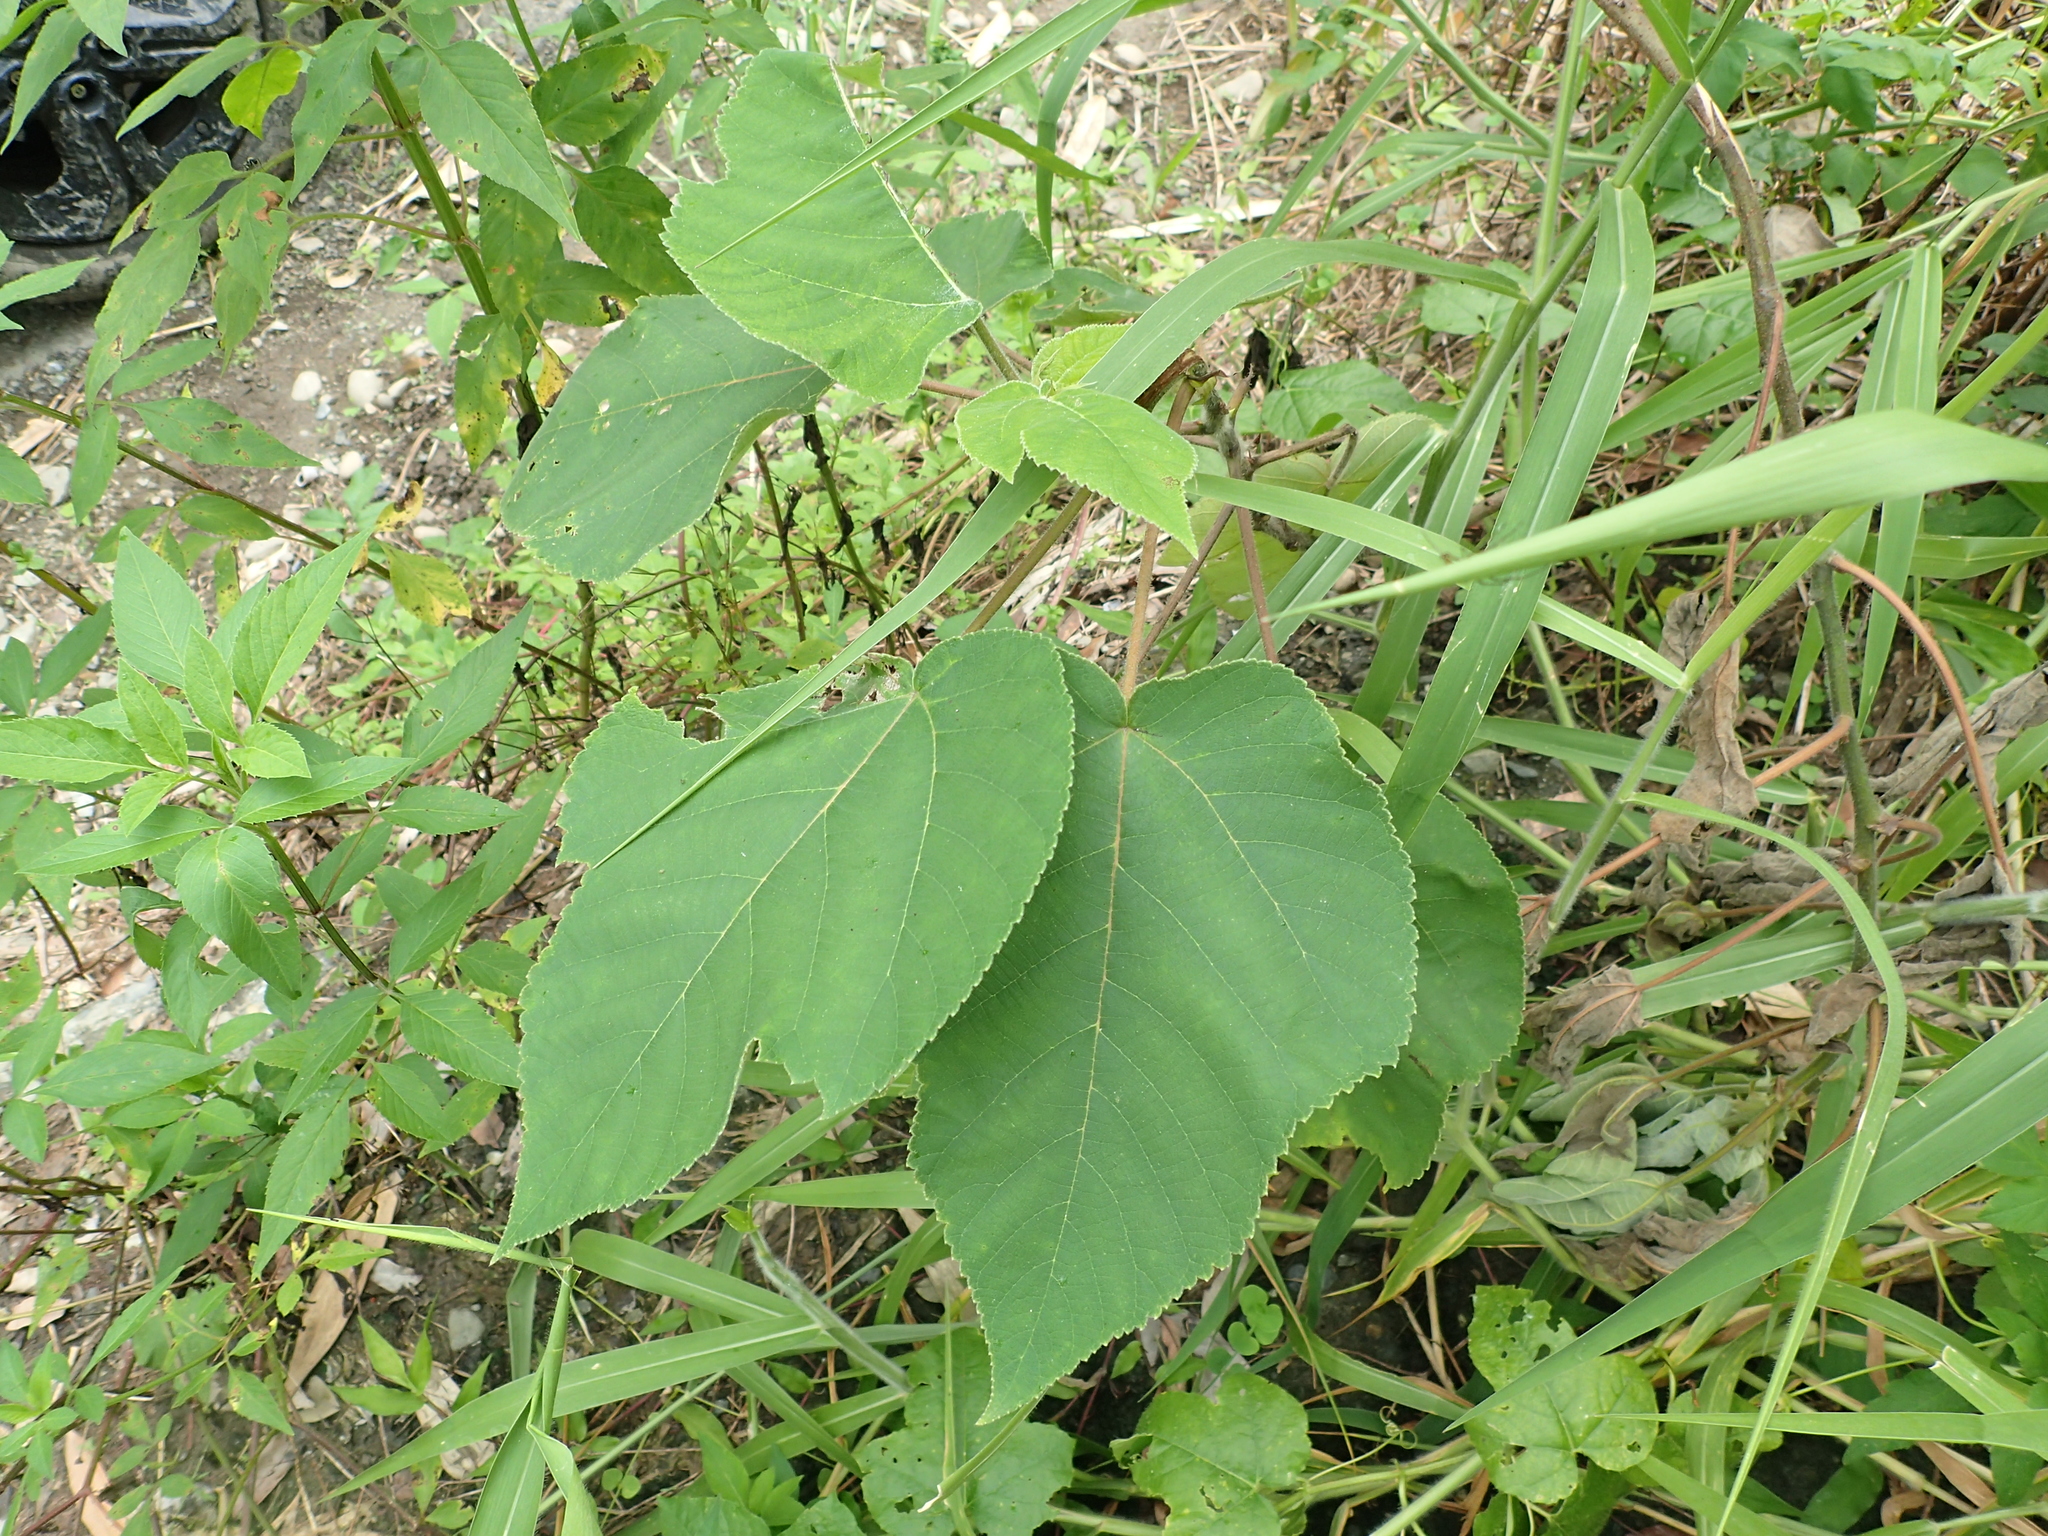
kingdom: Plantae
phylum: Tracheophyta
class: Magnoliopsida
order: Rosales
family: Moraceae
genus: Broussonetia
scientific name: Broussonetia papyrifera
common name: Paper mulberry
